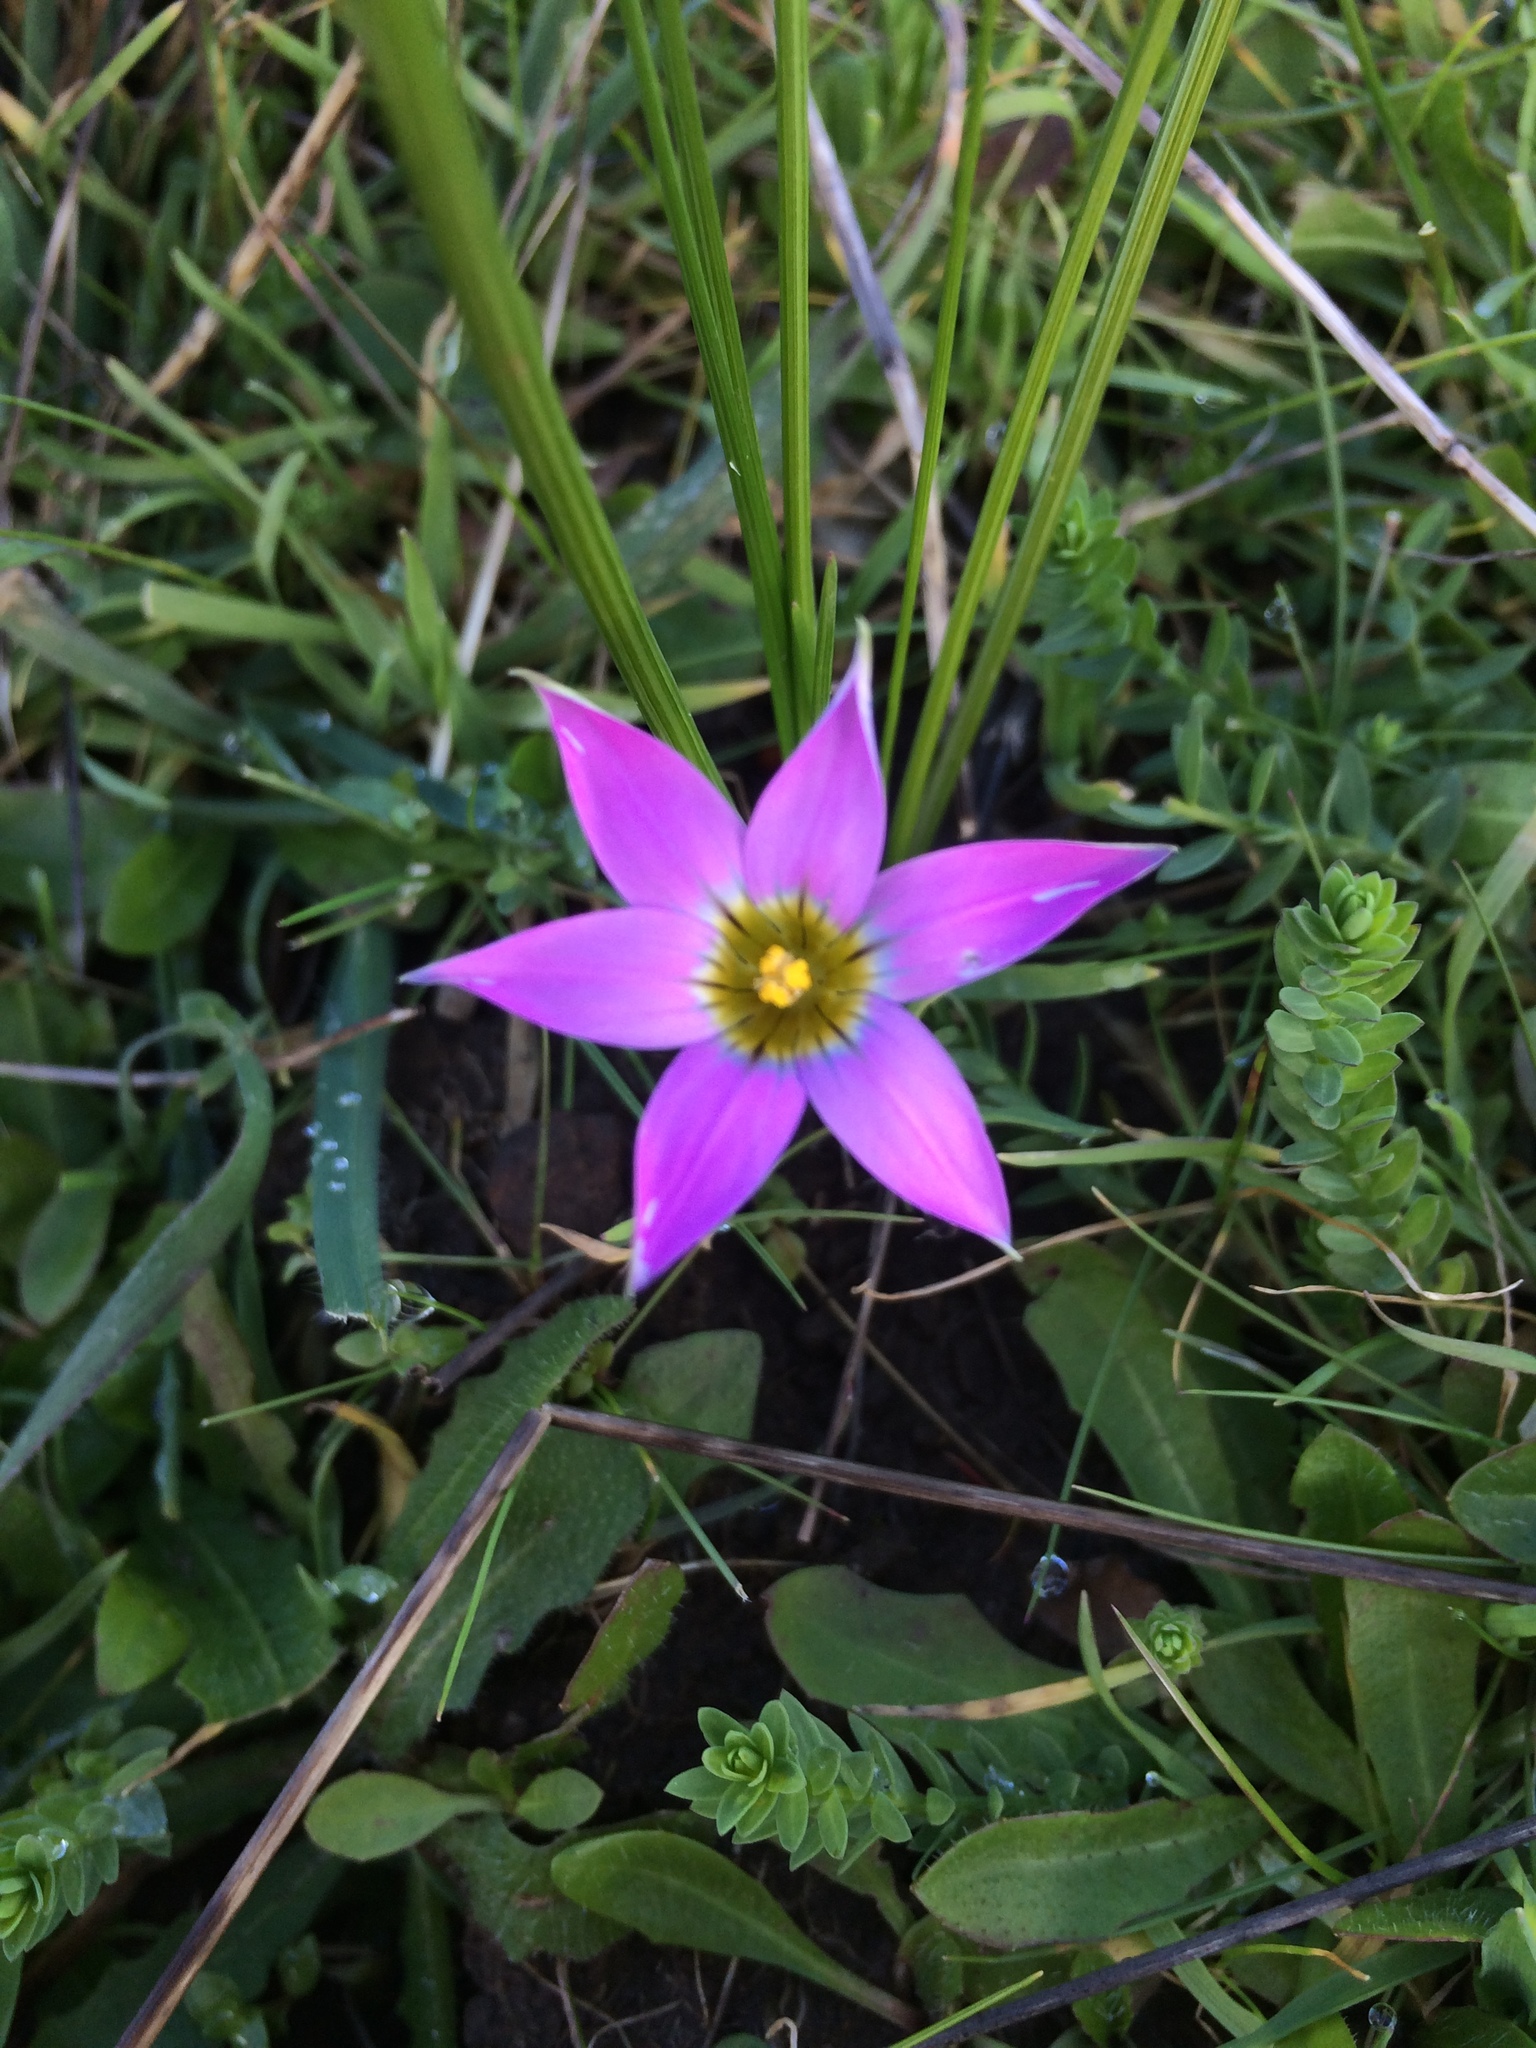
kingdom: Plantae
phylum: Tracheophyta
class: Liliopsida
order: Asparagales
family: Iridaceae
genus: Romulea
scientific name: Romulea rosea
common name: Oniongrass
